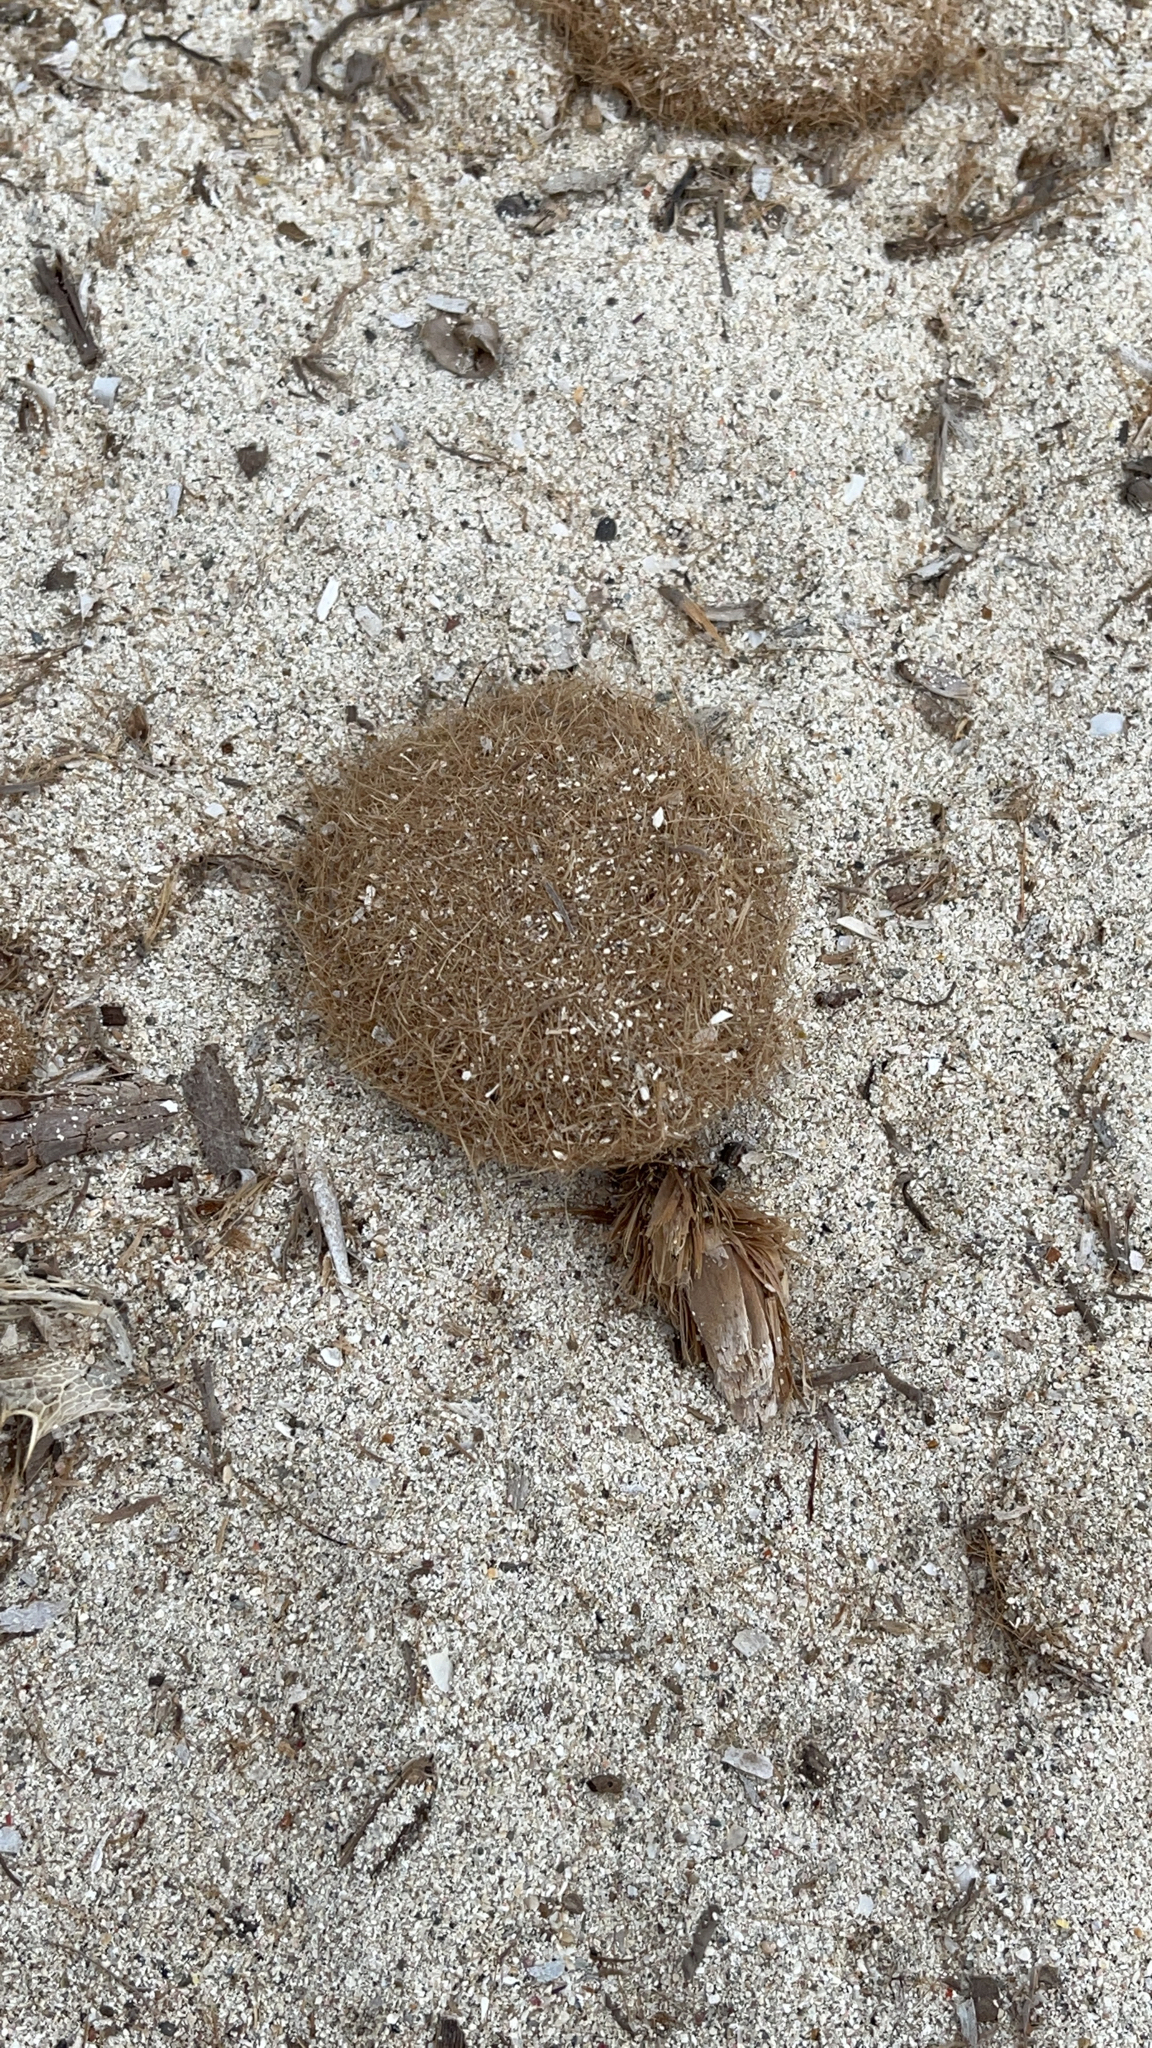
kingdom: Plantae
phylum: Tracheophyta
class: Liliopsida
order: Alismatales
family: Posidoniaceae
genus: Posidonia
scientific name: Posidonia oceanica
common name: Mediterranean tapeweed
